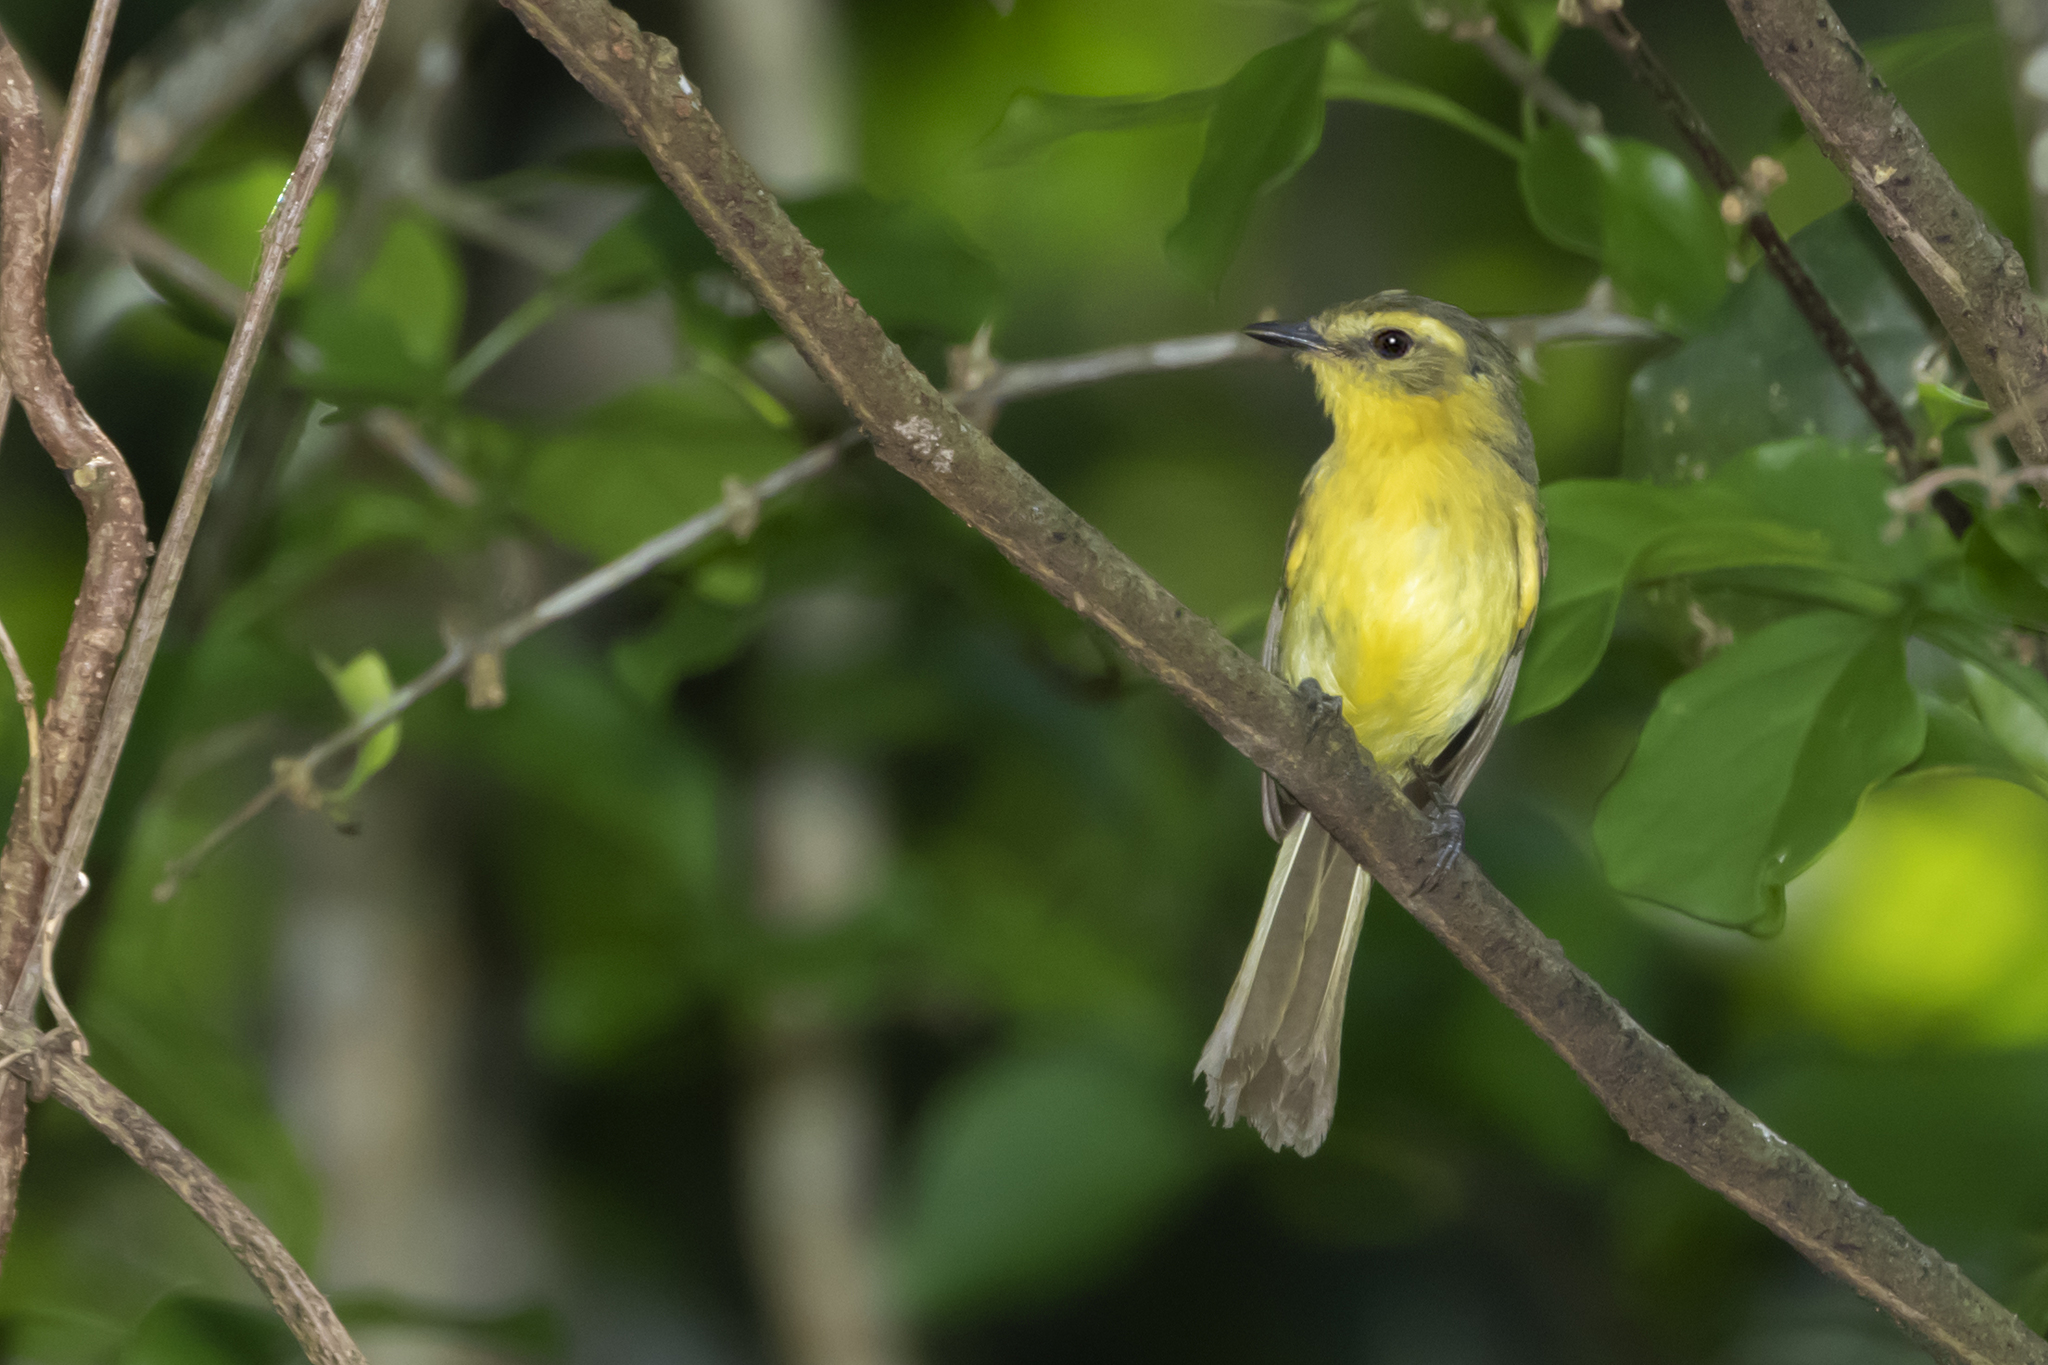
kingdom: Animalia
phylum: Chordata
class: Aves
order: Passeriformes
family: Tyrannidae
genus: Capsiempis
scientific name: Capsiempis flaveola
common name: Yellow tyrannulet
